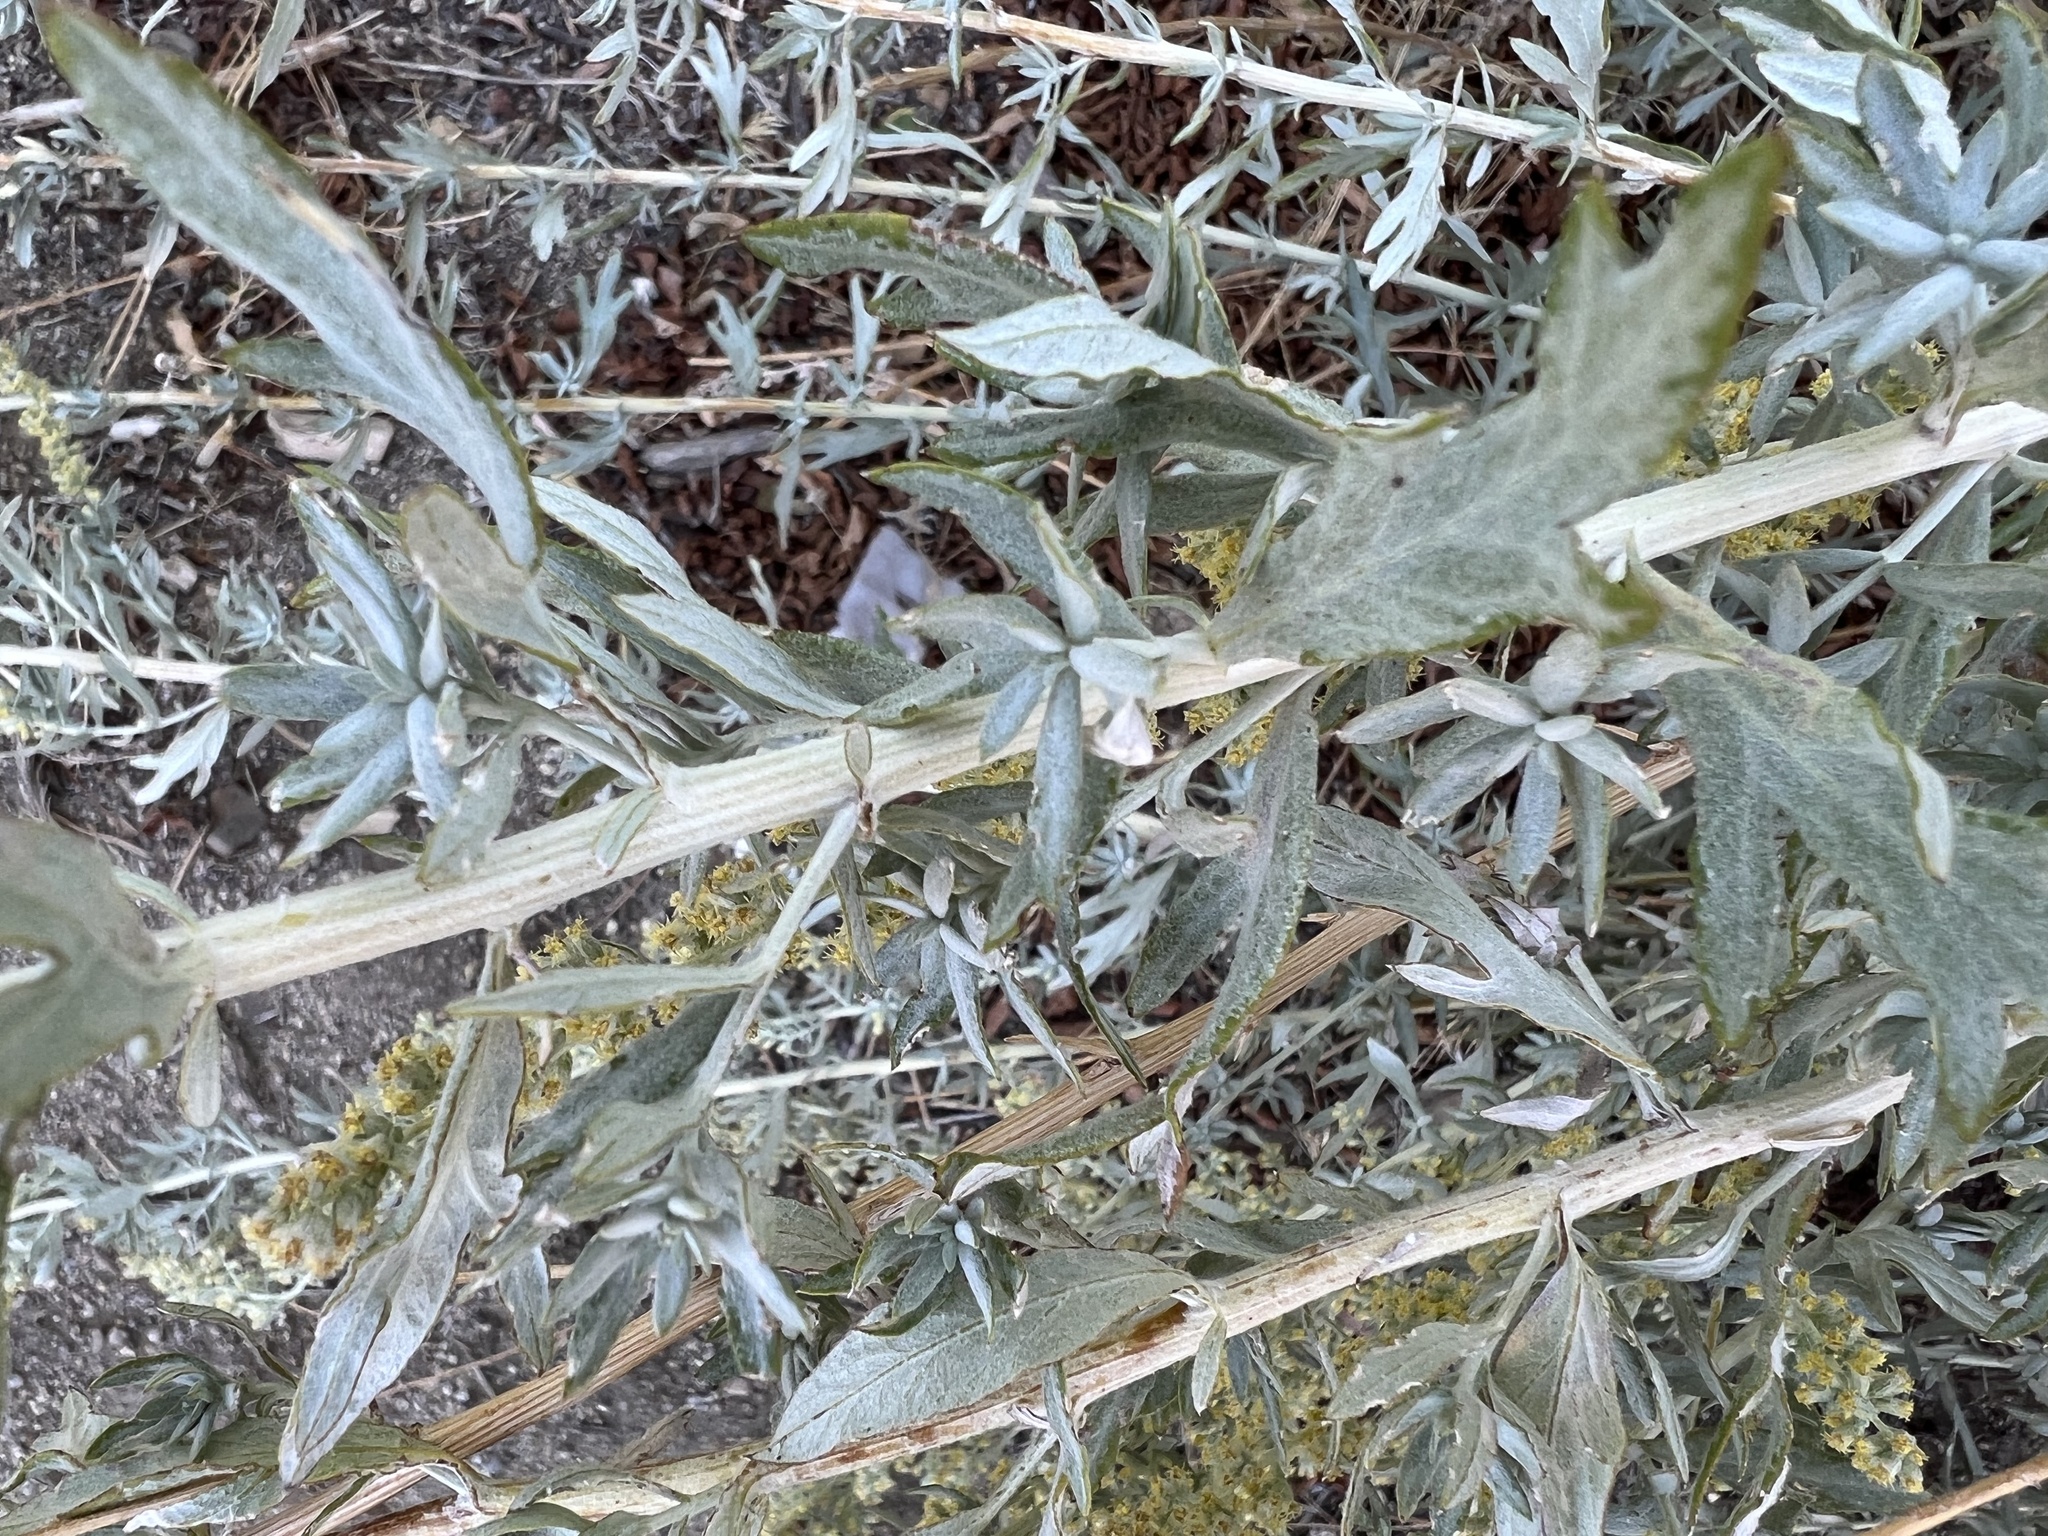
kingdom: Plantae
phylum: Tracheophyta
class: Magnoliopsida
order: Asterales
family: Asteraceae
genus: Artemisia
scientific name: Artemisia ludoviciana
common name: Western mugwort
